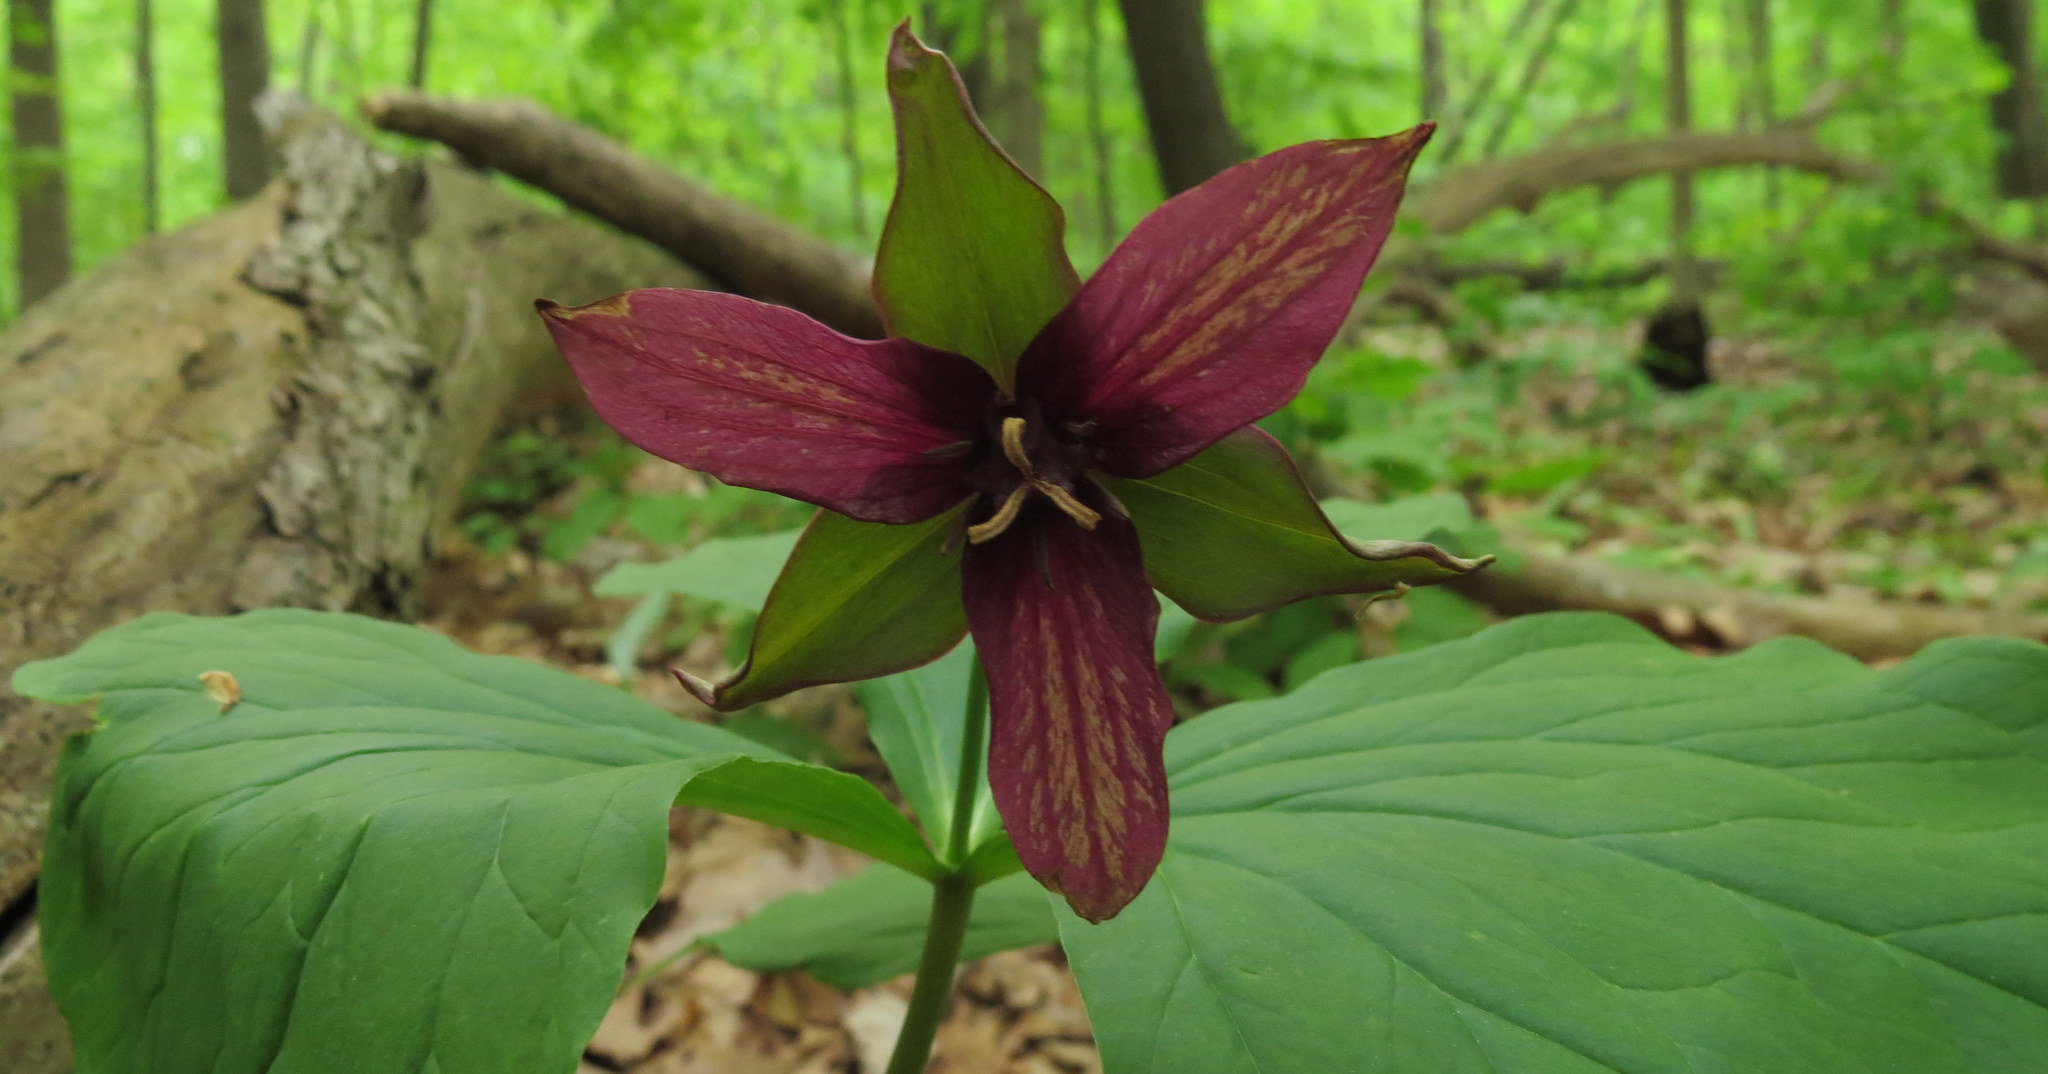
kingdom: Plantae
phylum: Tracheophyta
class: Liliopsida
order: Liliales
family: Melanthiaceae
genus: Trillium
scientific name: Trillium erectum
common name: Purple trillium
